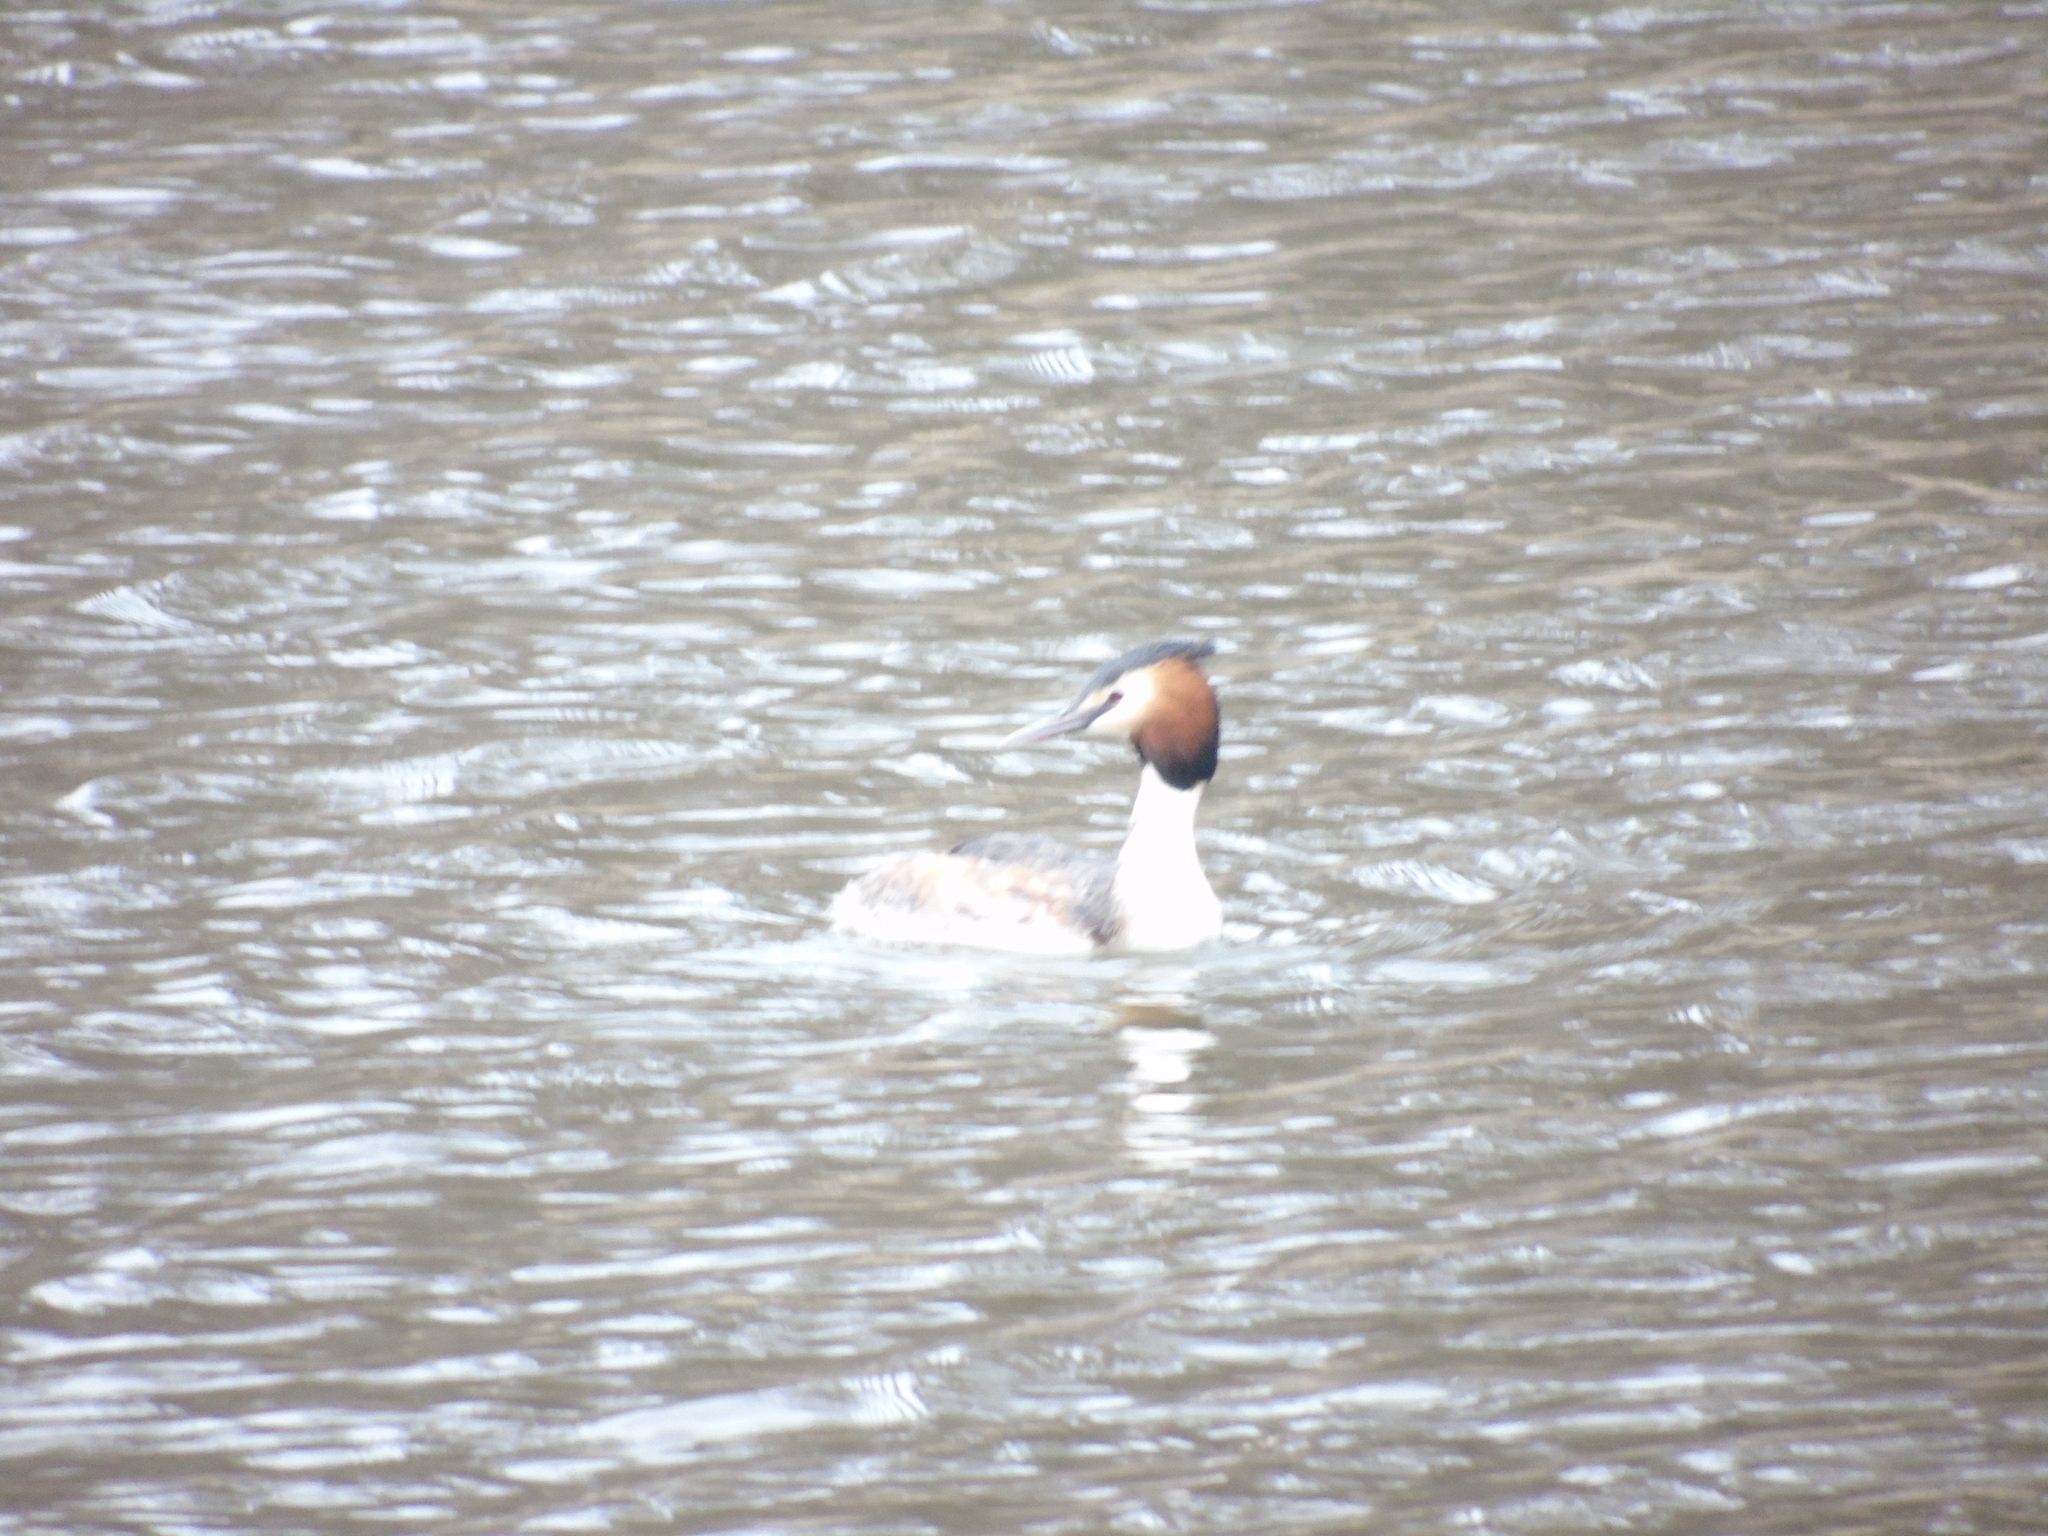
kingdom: Animalia
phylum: Chordata
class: Aves
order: Podicipediformes
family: Podicipedidae
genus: Podiceps
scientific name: Podiceps cristatus
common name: Great crested grebe
